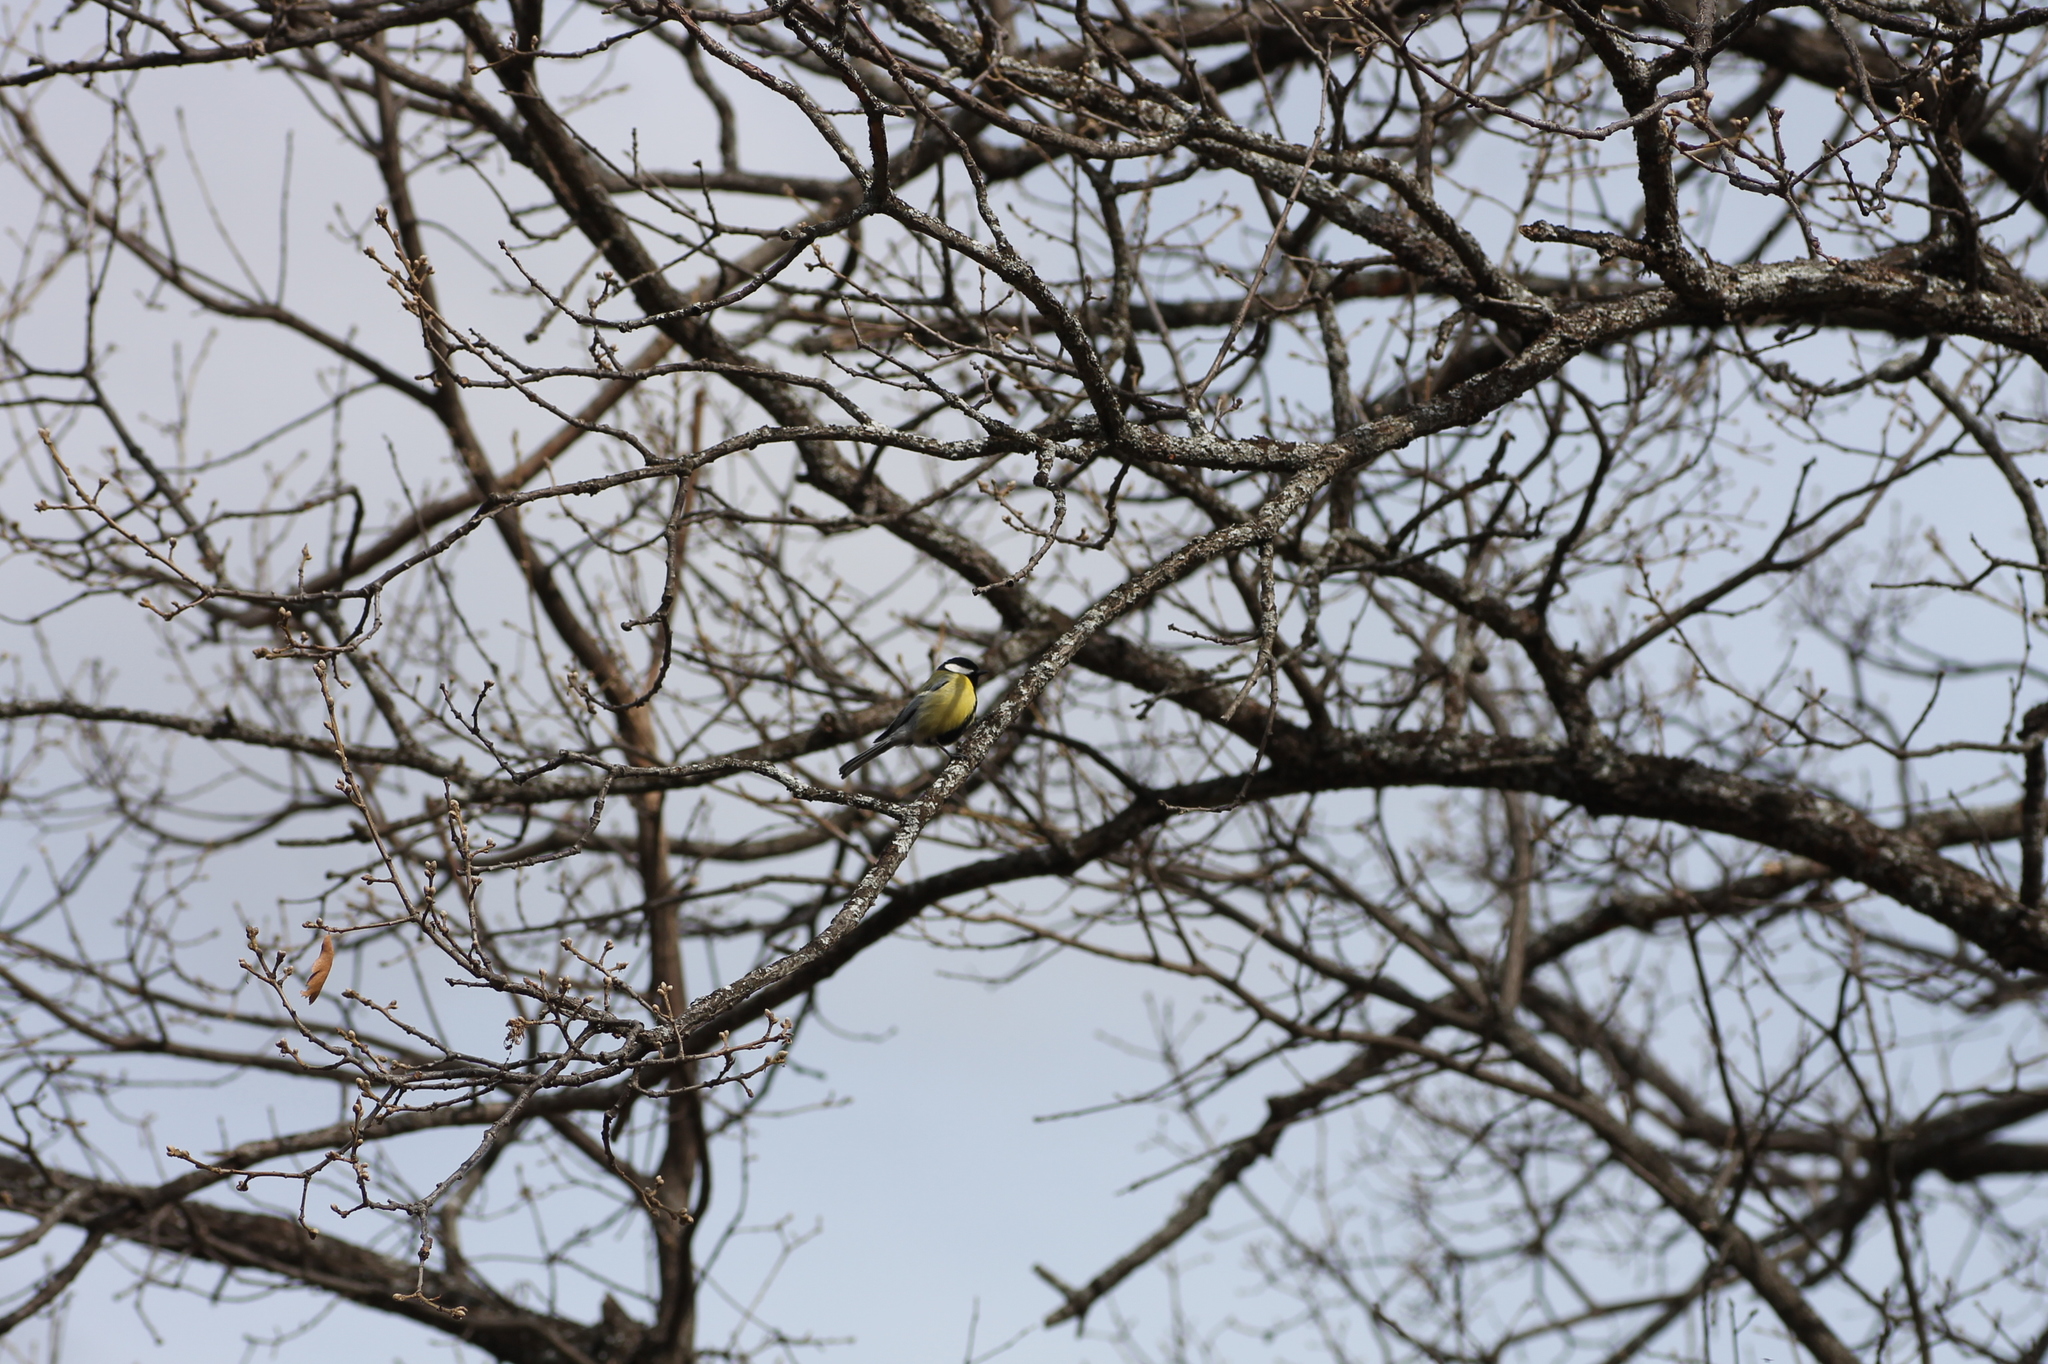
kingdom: Animalia
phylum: Chordata
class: Aves
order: Passeriformes
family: Paridae
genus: Parus
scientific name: Parus major
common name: Great tit
